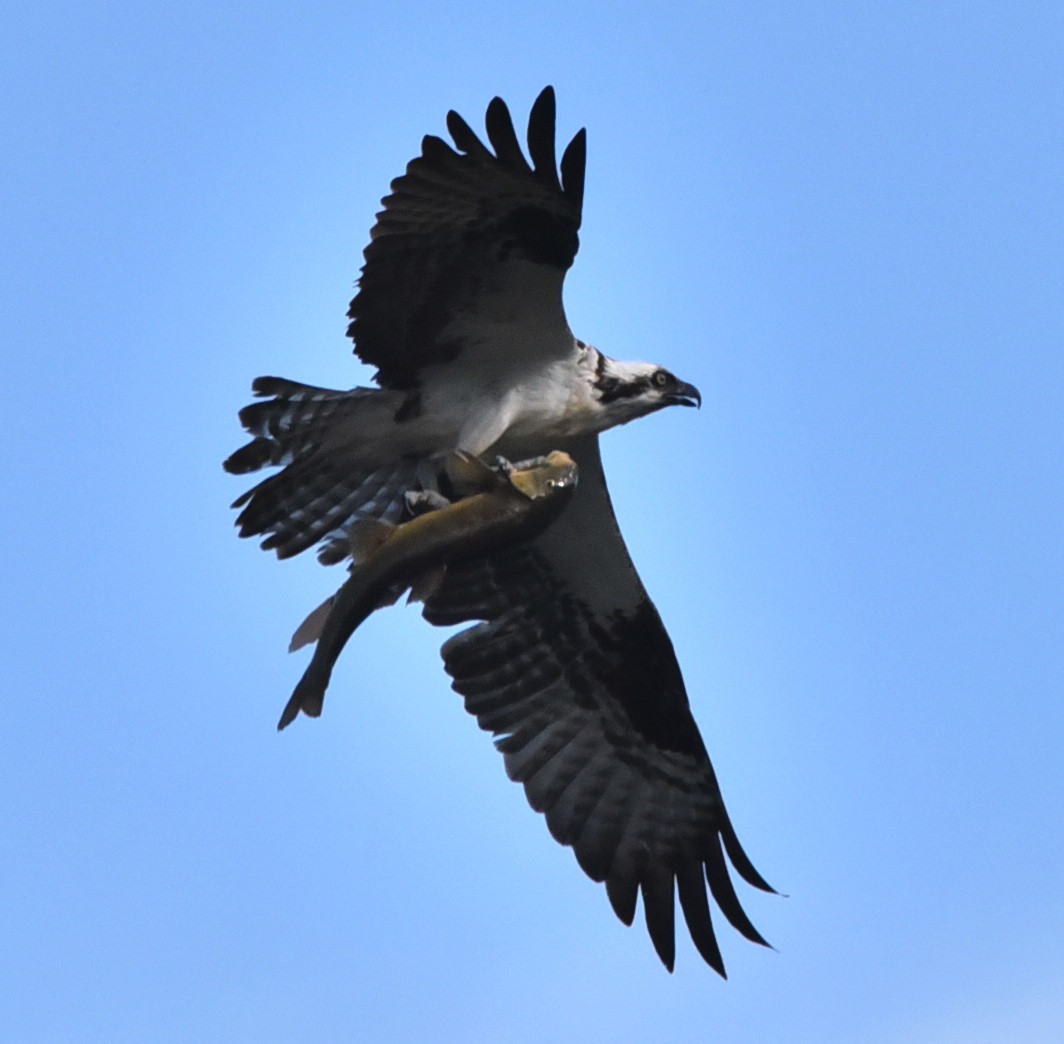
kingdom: Animalia
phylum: Chordata
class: Aves
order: Accipitriformes
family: Pandionidae
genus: Pandion
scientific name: Pandion haliaetus
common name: Osprey
